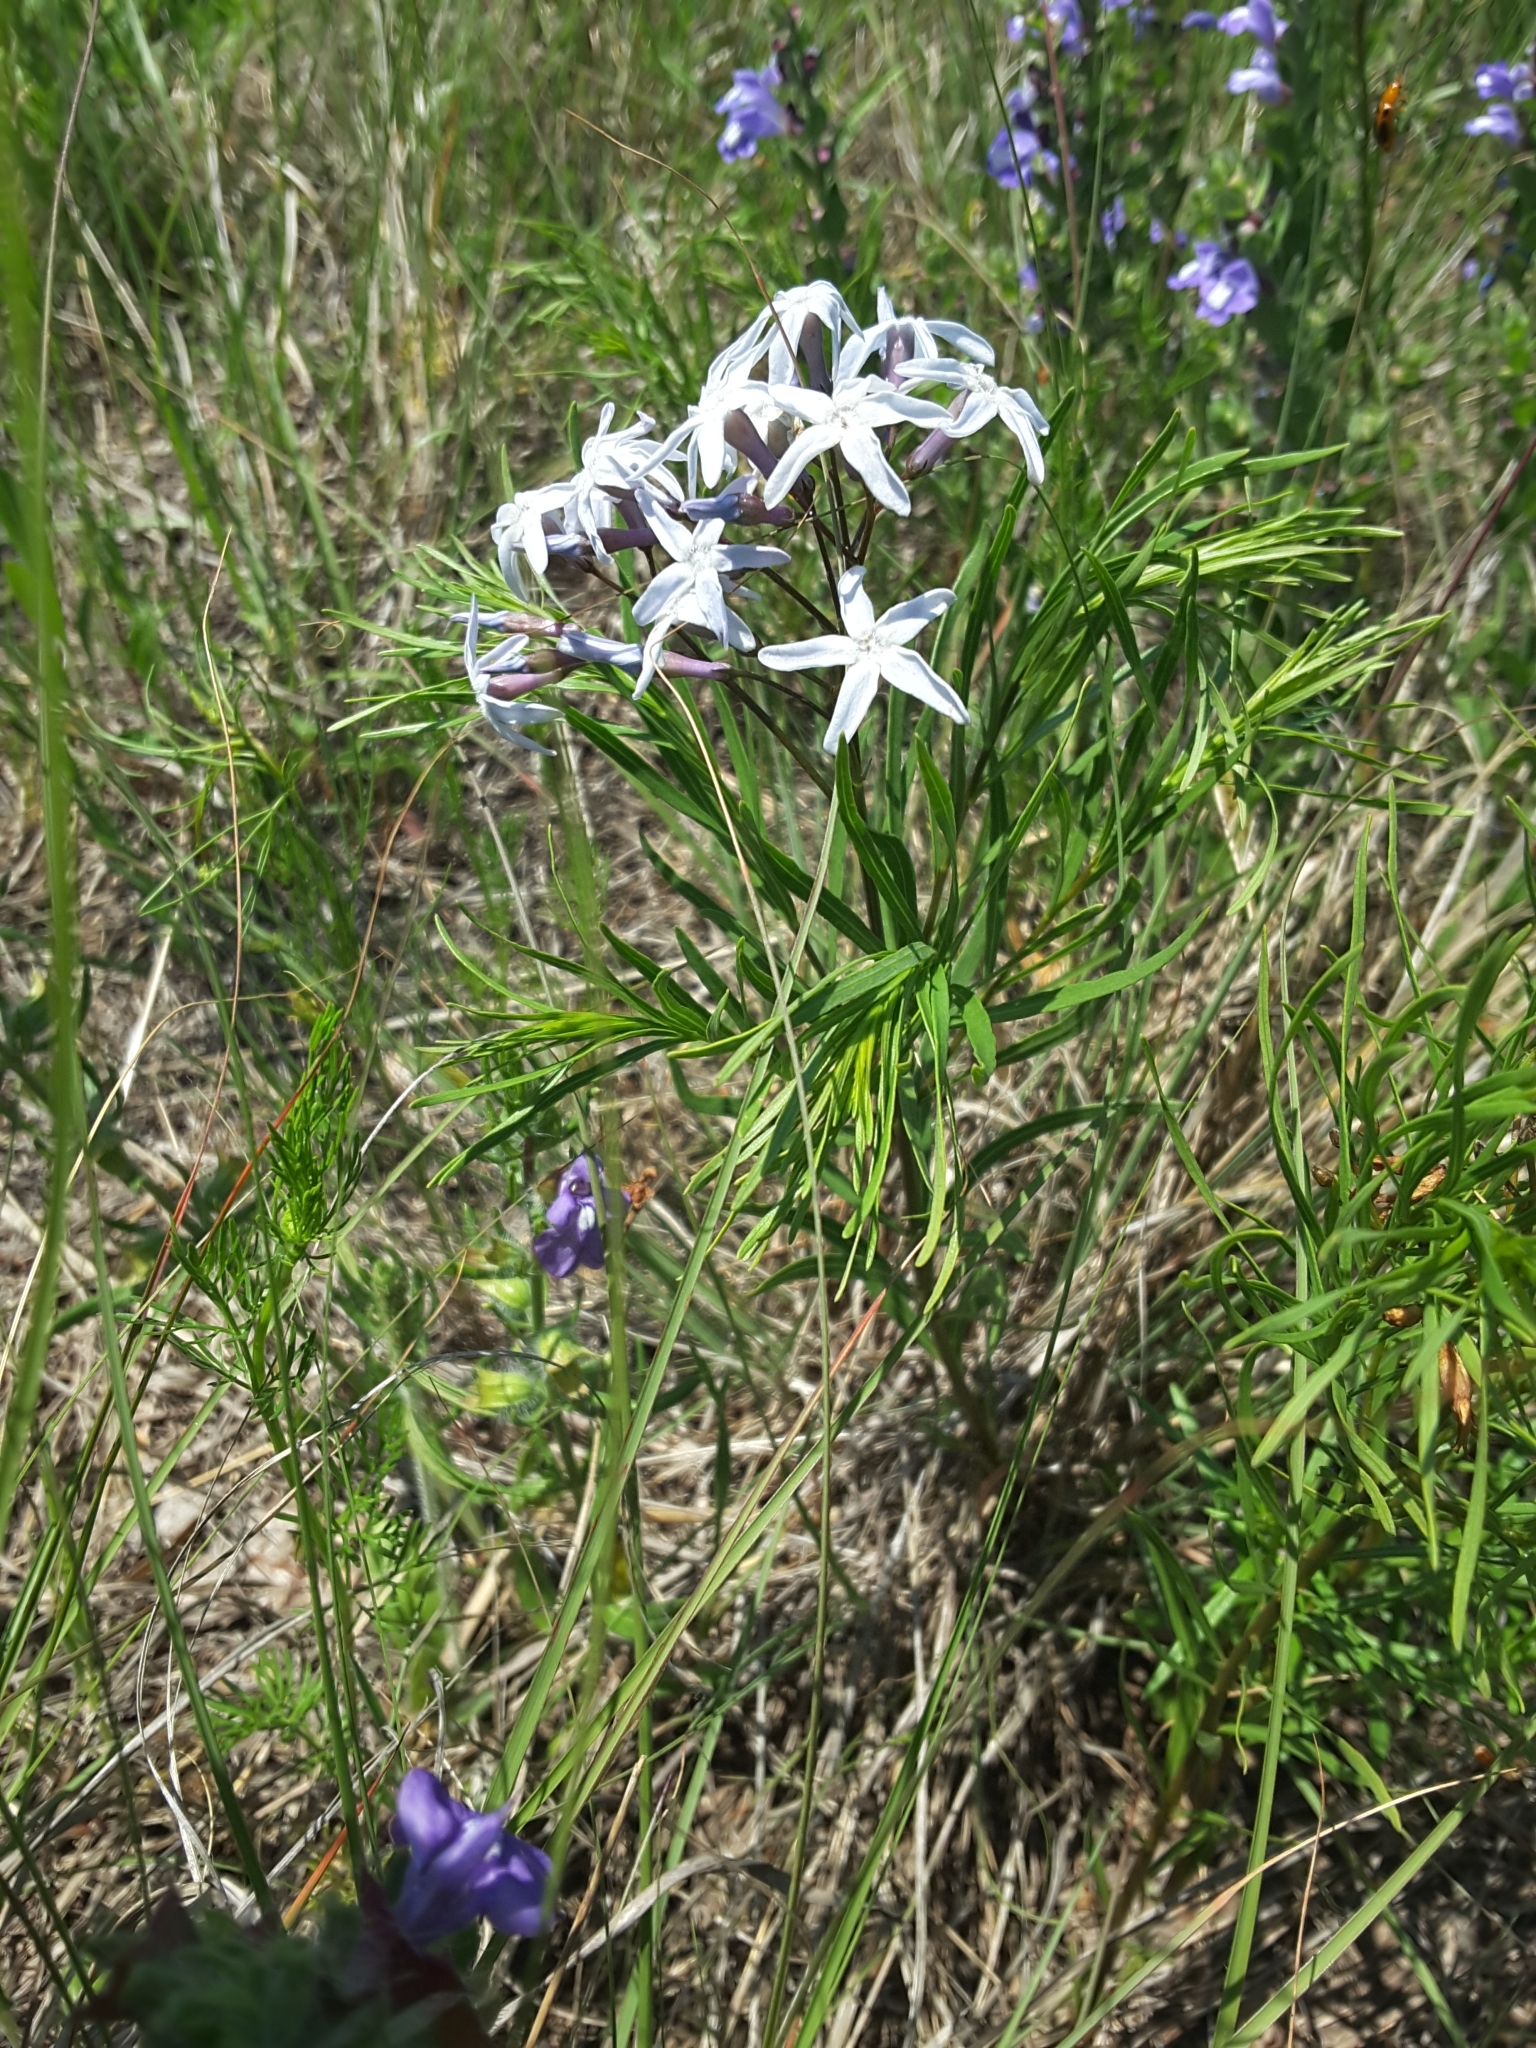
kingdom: Plantae
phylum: Tracheophyta
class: Magnoliopsida
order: Gentianales
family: Apocynaceae
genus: Amsonia
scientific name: Amsonia ciliata
